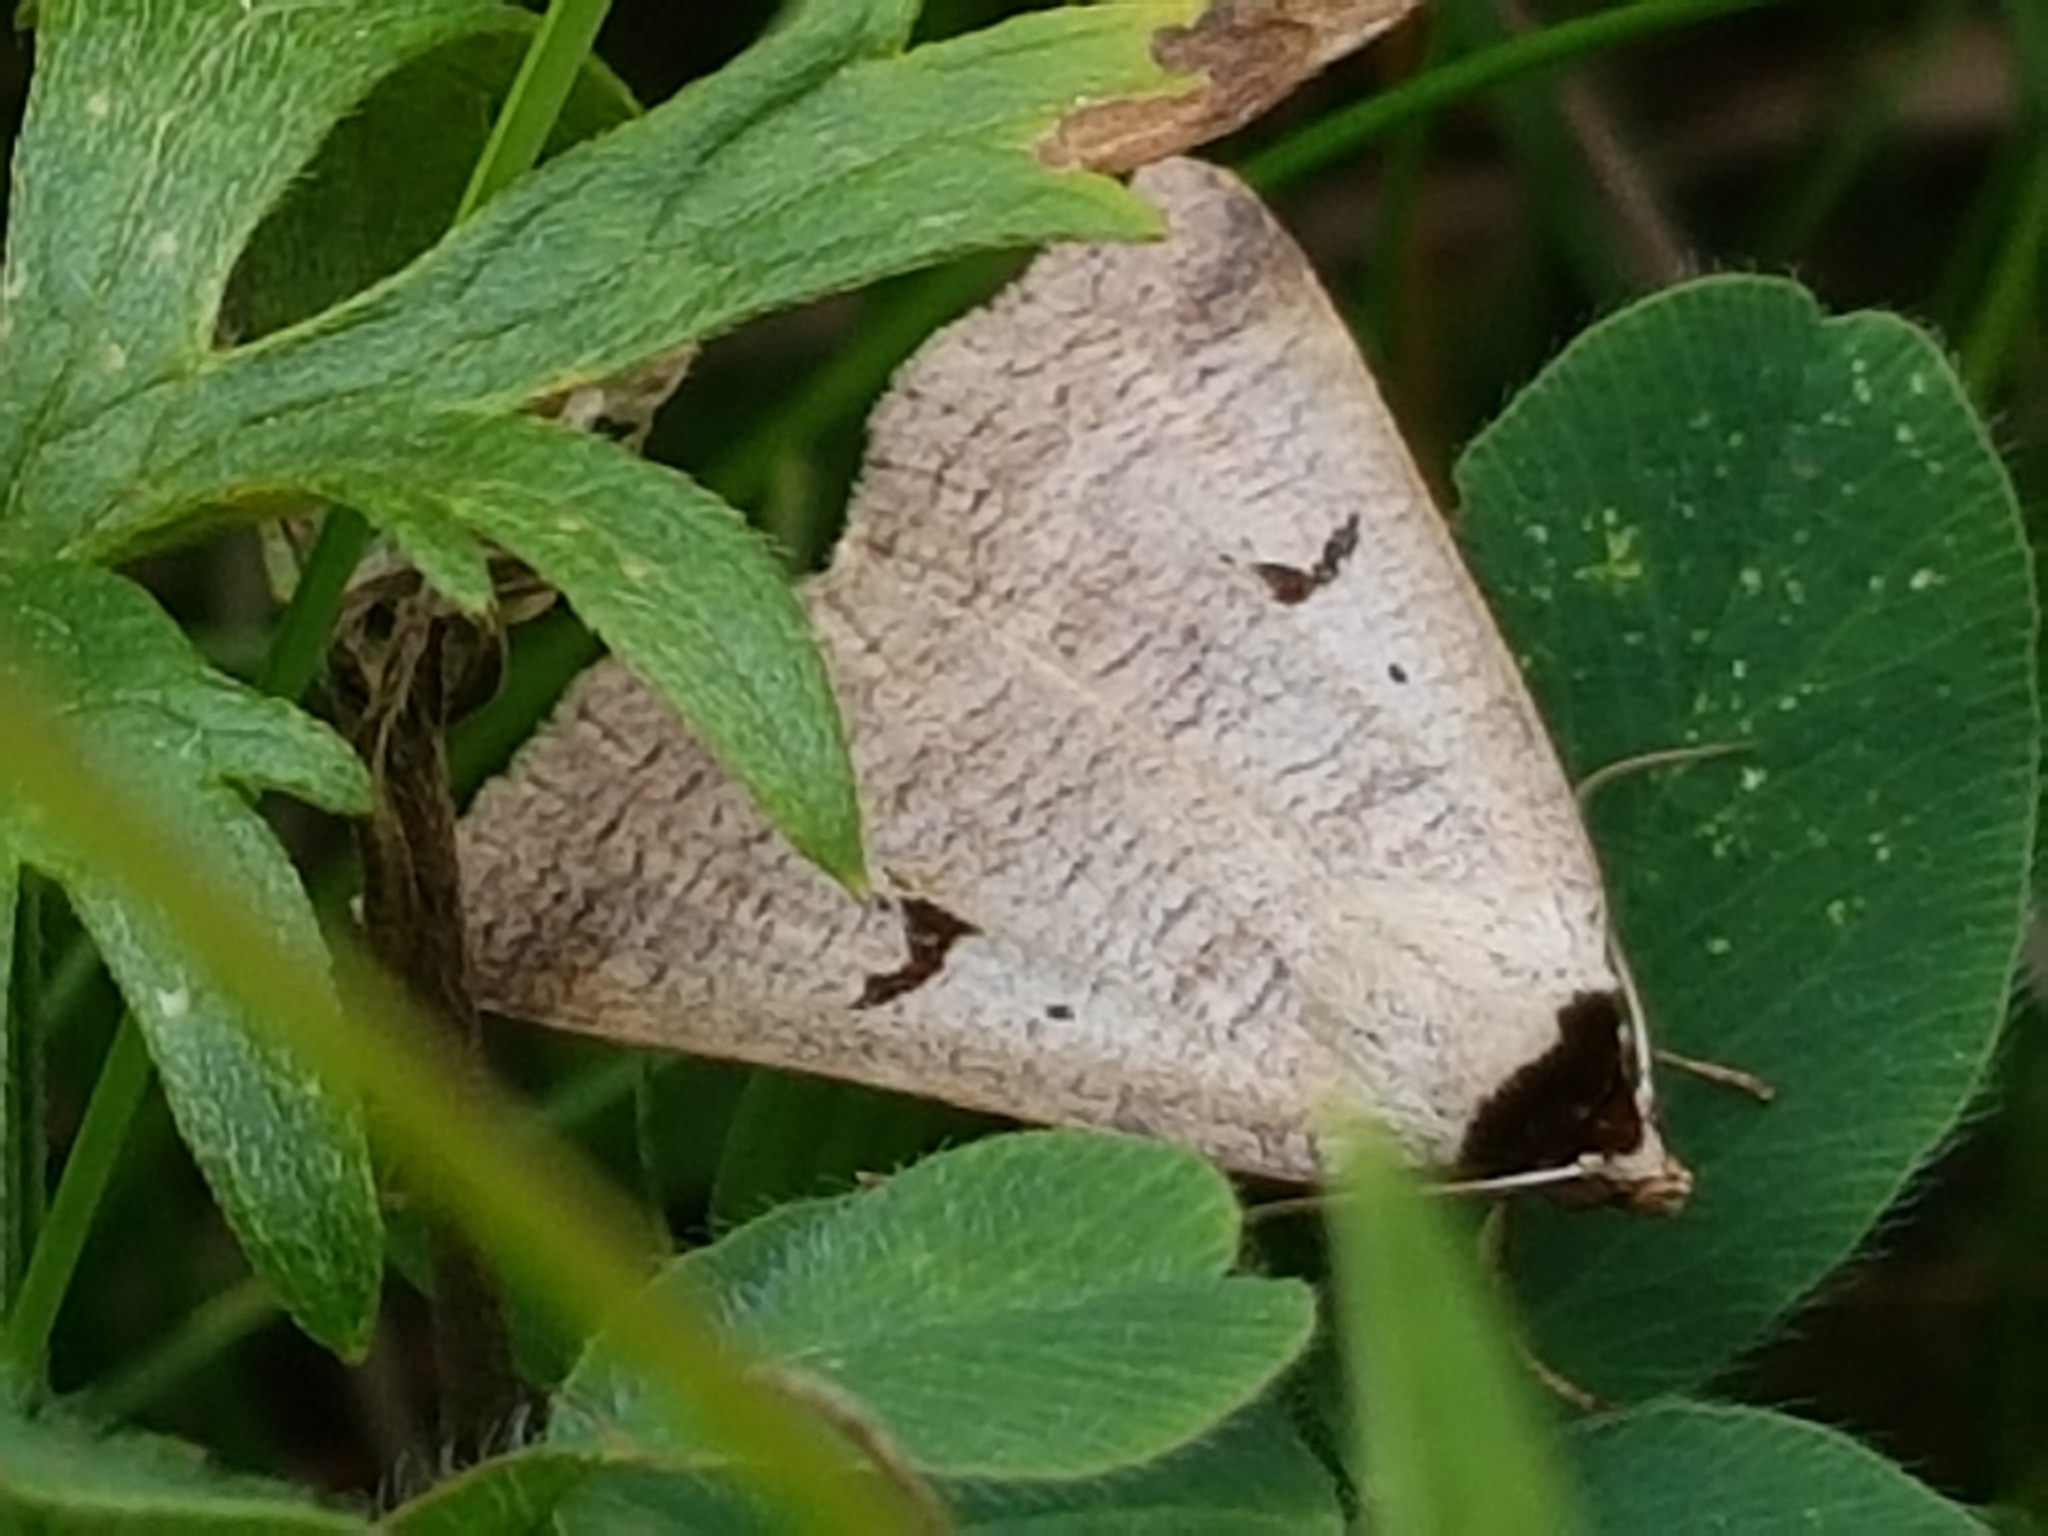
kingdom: Animalia
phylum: Arthropoda
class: Insecta
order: Lepidoptera
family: Erebidae
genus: Lygephila
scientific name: Lygephila pastinum
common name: Blackneck
